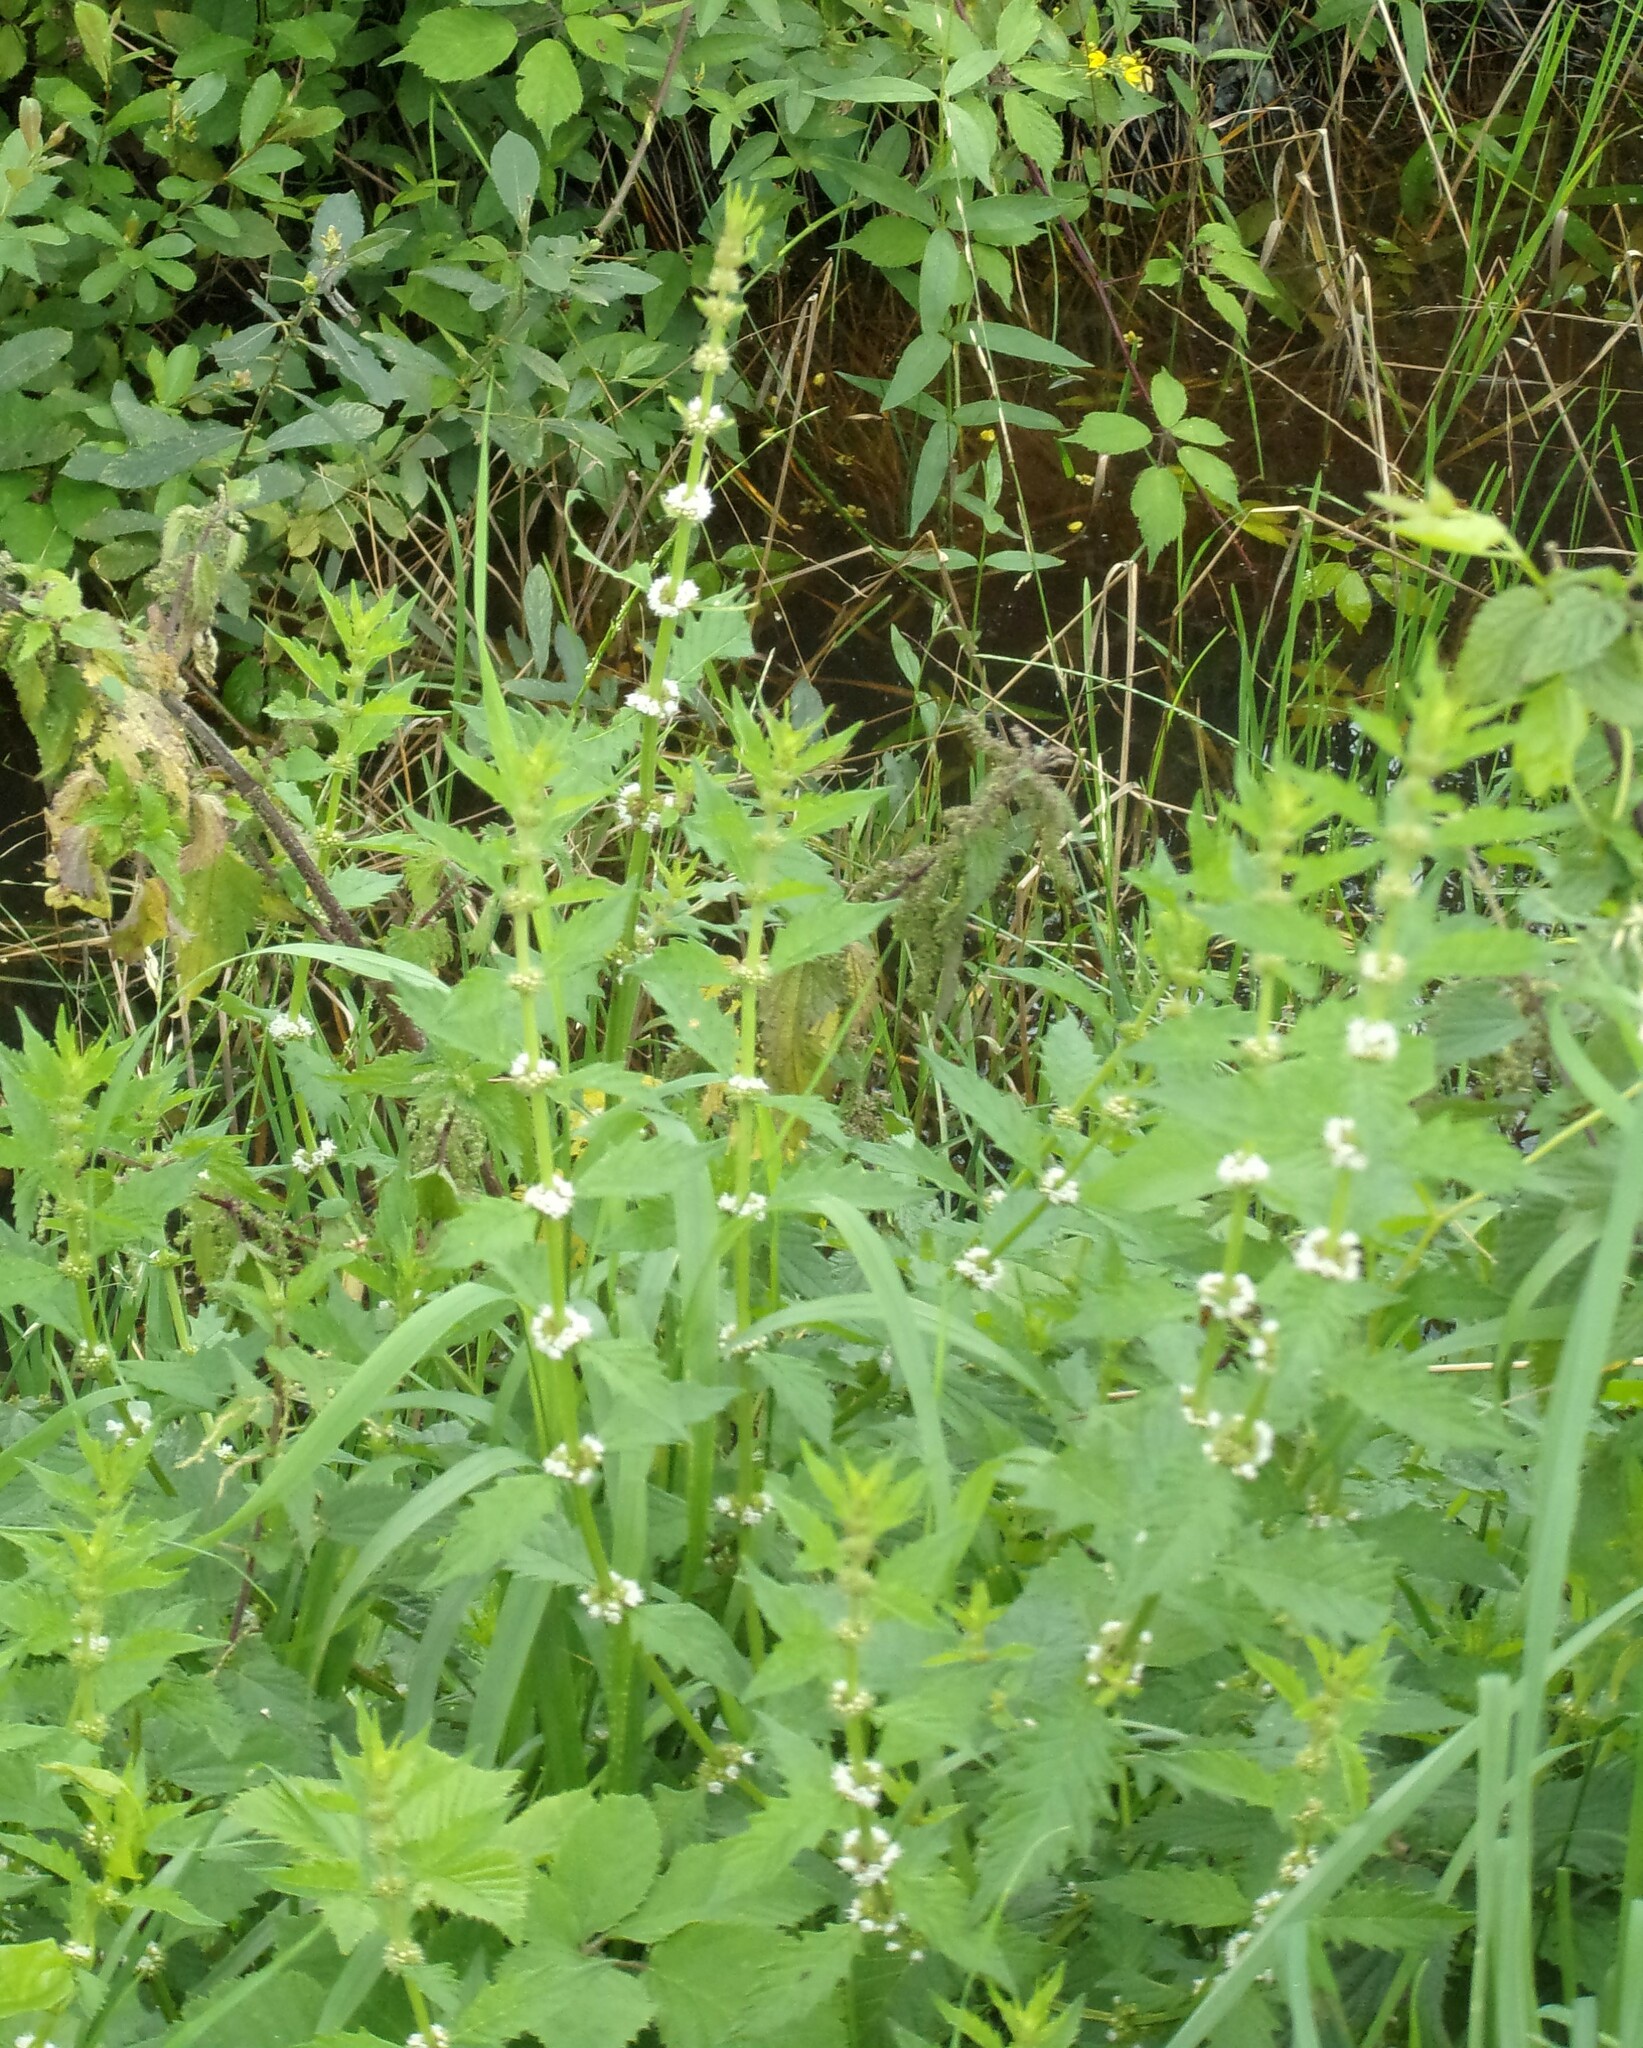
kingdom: Plantae
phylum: Tracheophyta
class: Magnoliopsida
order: Lamiales
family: Lamiaceae
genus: Lycopus
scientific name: Lycopus europaeus
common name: European bugleweed
